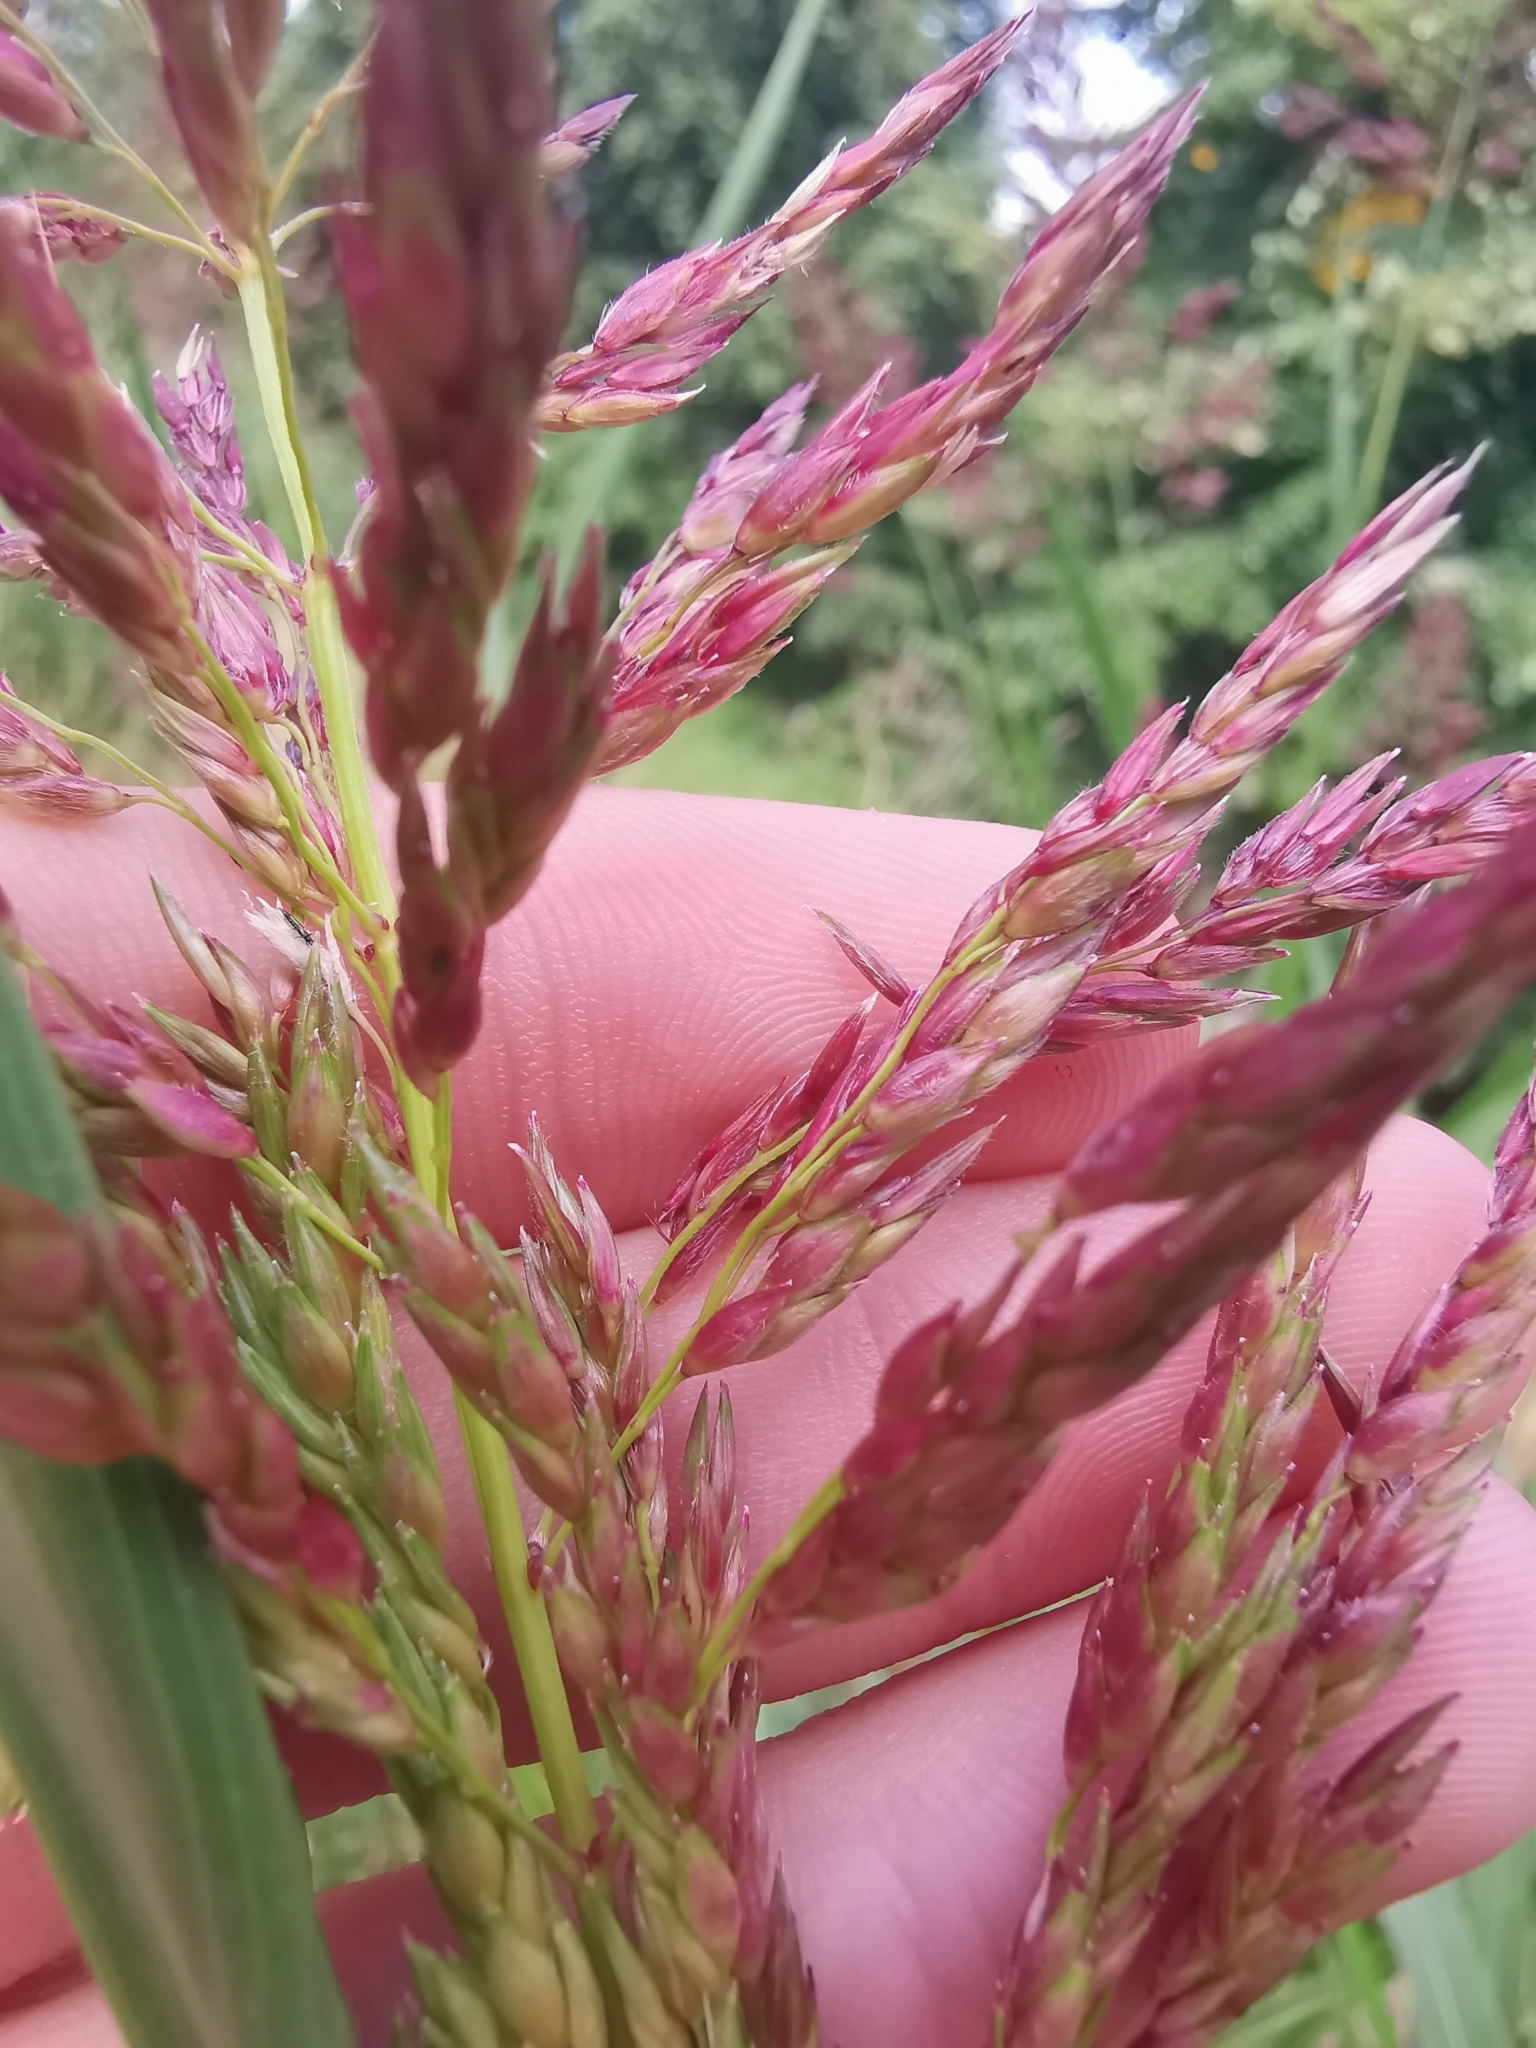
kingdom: Plantae
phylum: Tracheophyta
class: Liliopsida
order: Poales
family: Poaceae
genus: Sorghum
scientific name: Sorghum halepense
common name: Johnson-grass
